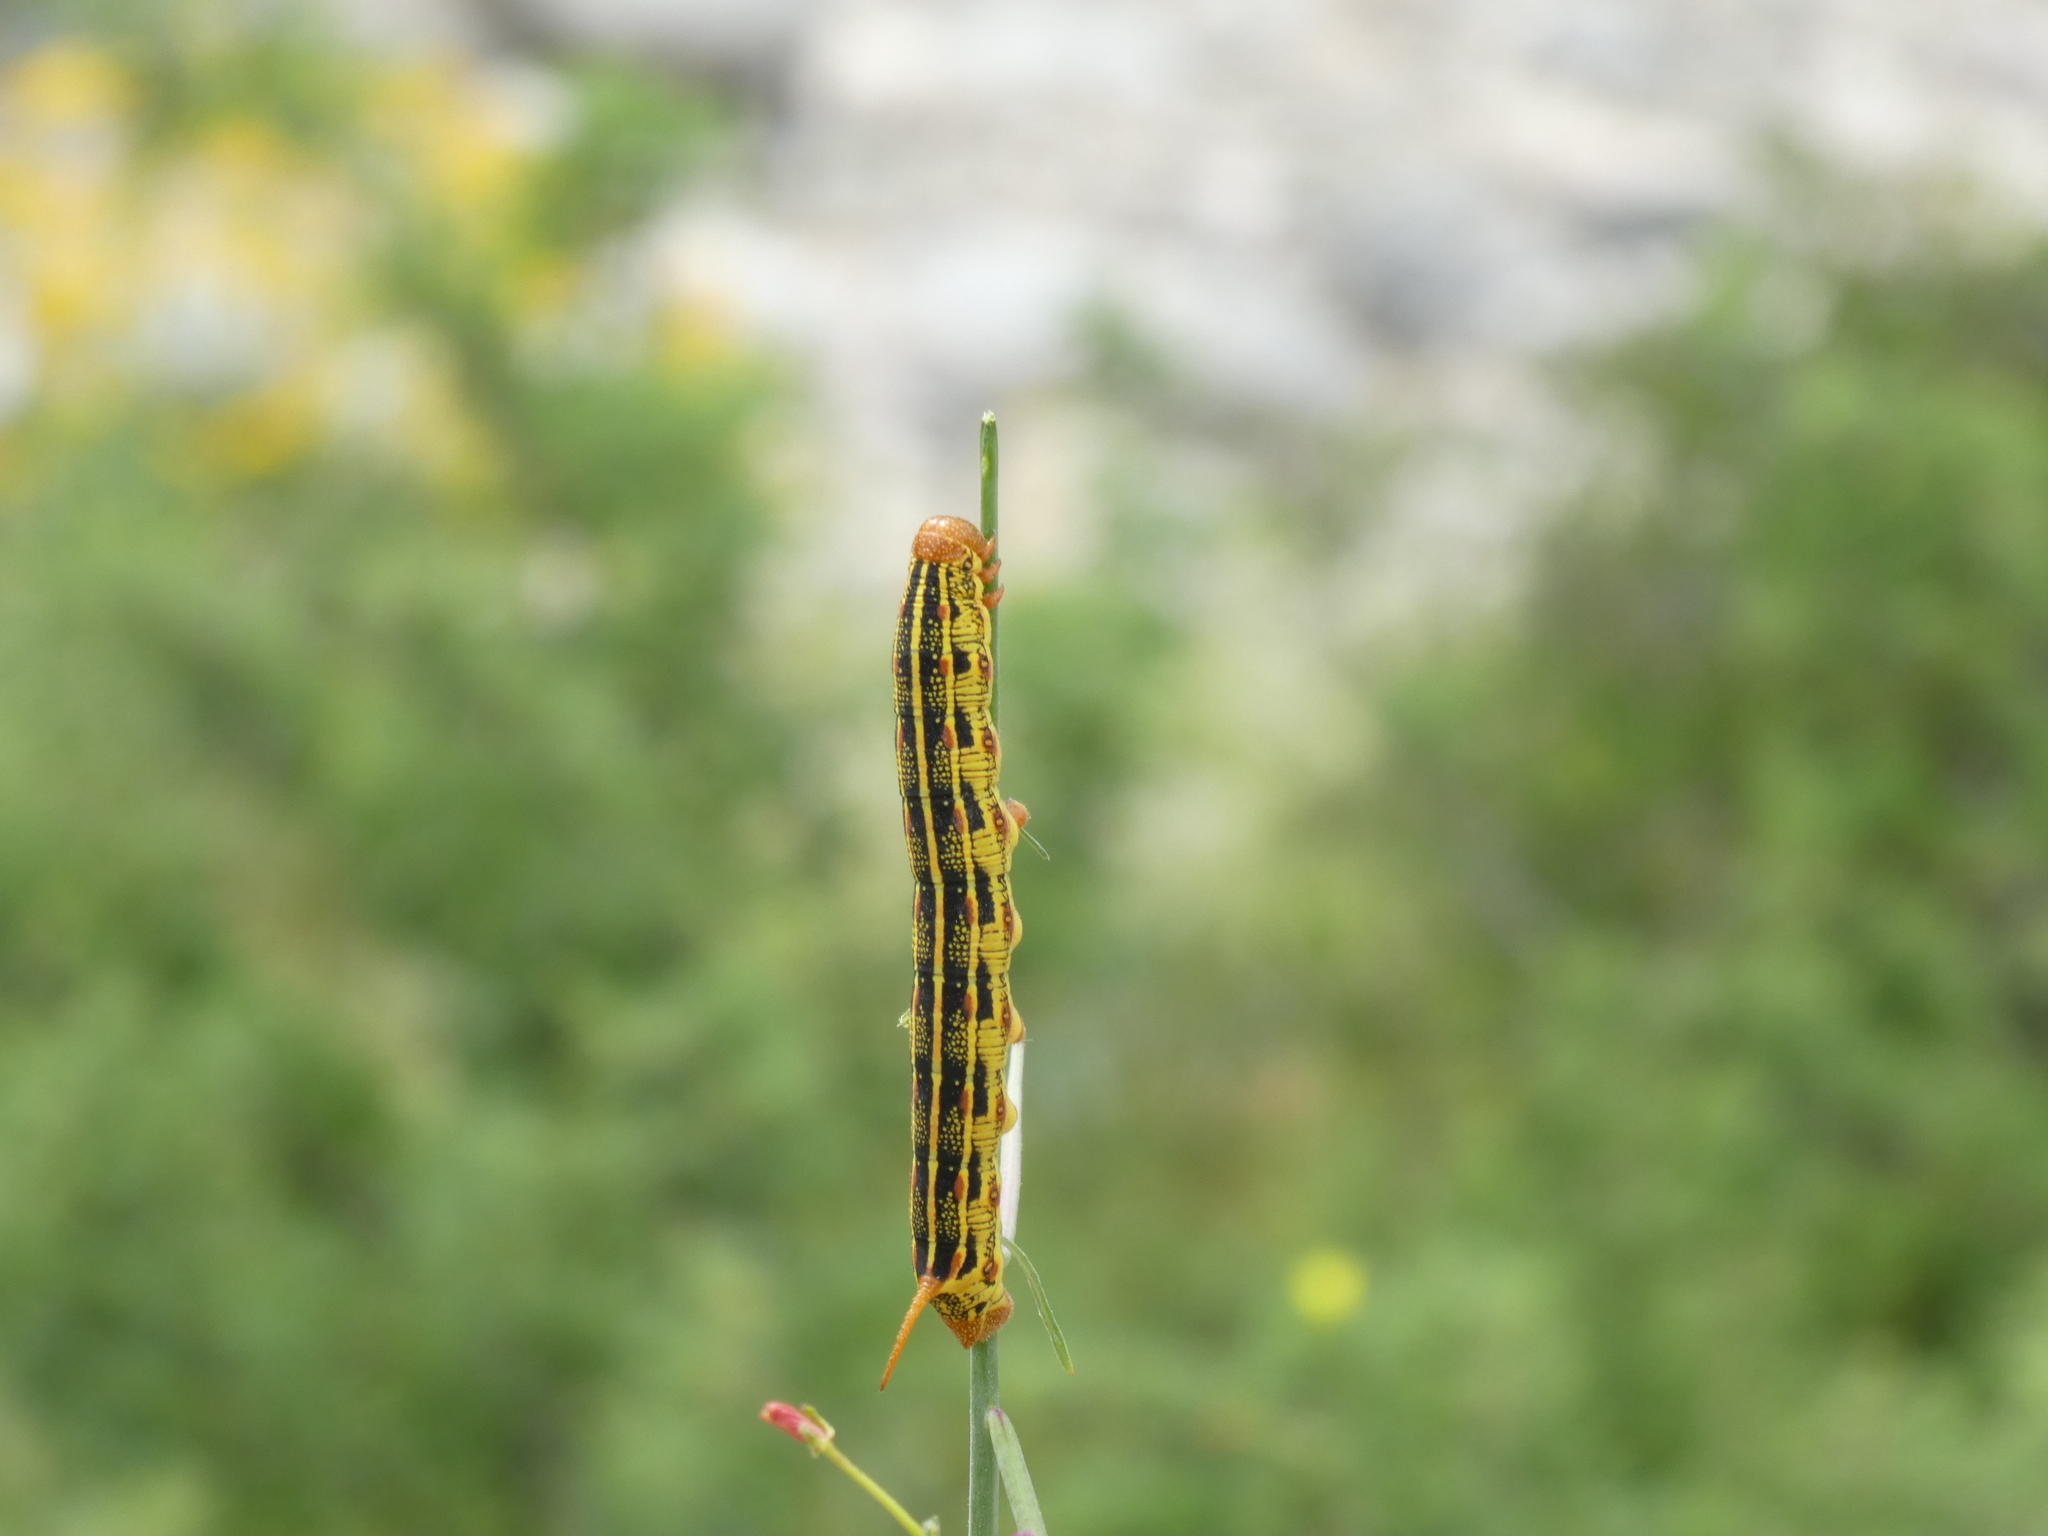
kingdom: Animalia
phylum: Arthropoda
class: Insecta
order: Lepidoptera
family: Sphingidae
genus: Hyles
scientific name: Hyles lineata
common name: White-lined sphinx
